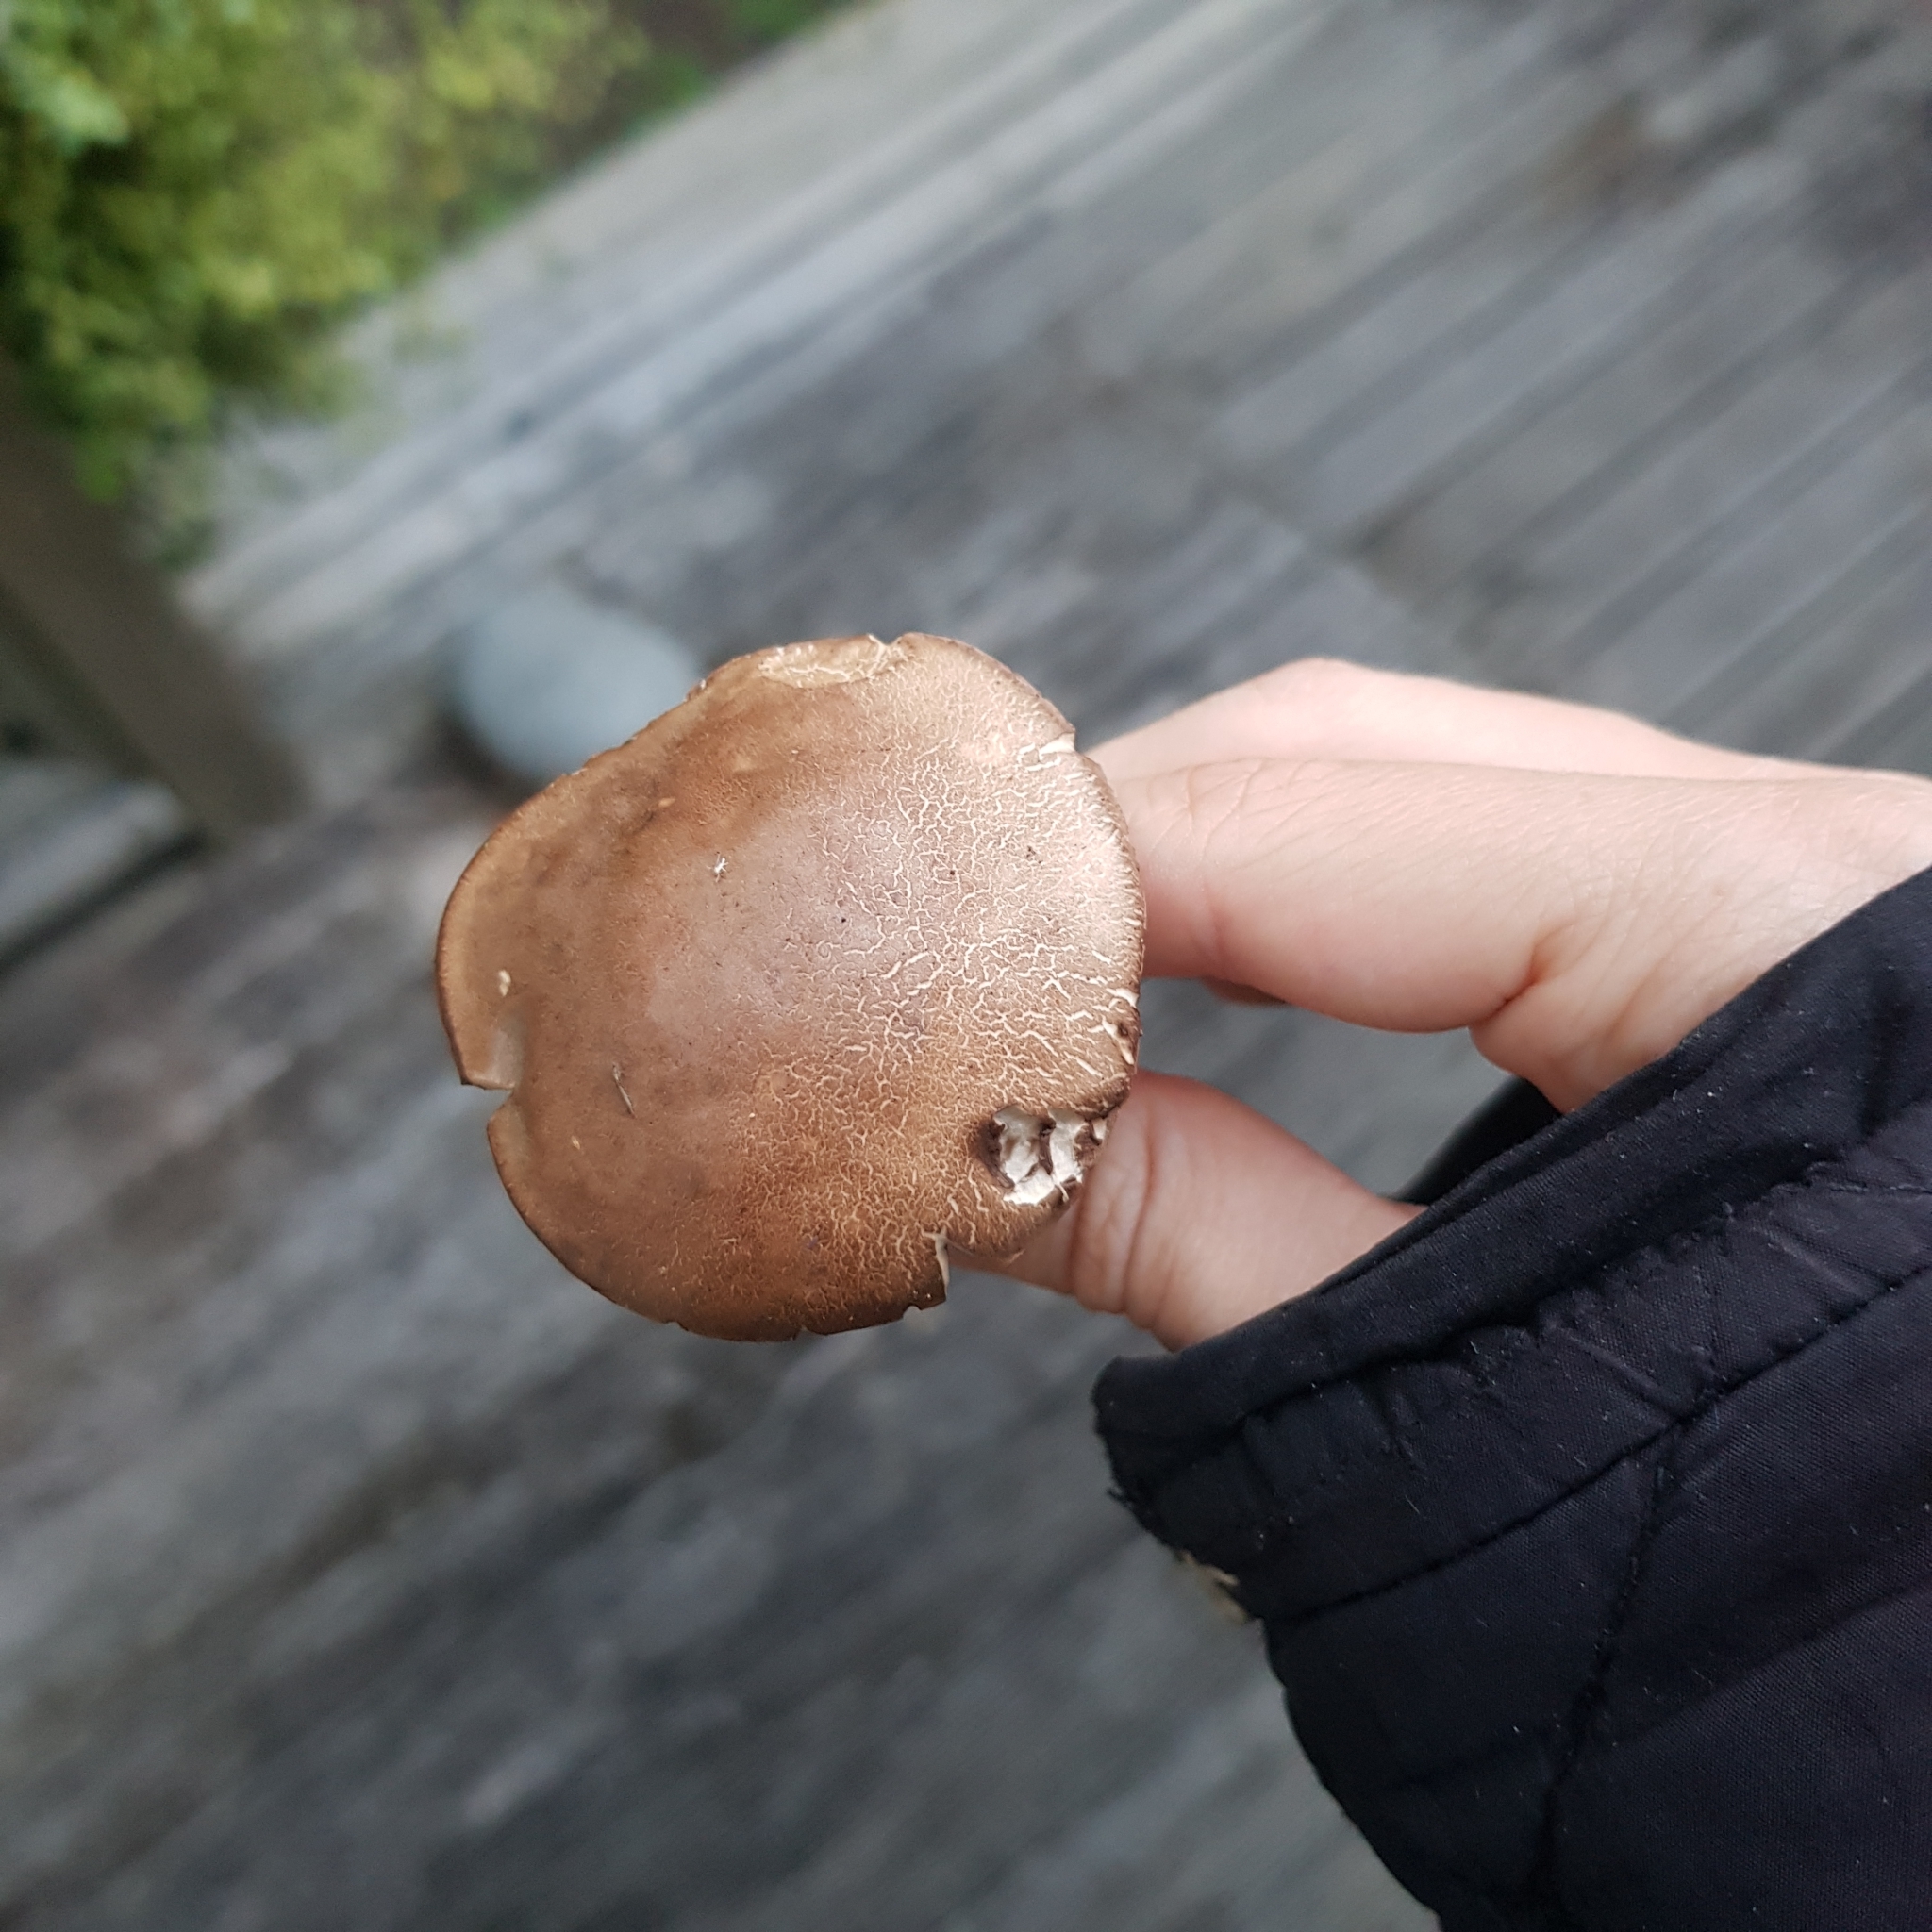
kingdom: Fungi
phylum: Basidiomycota
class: Agaricomycetes
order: Boletales
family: Boletaceae
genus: Leccinum
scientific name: Leccinum scabrum
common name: Blushing bolete
